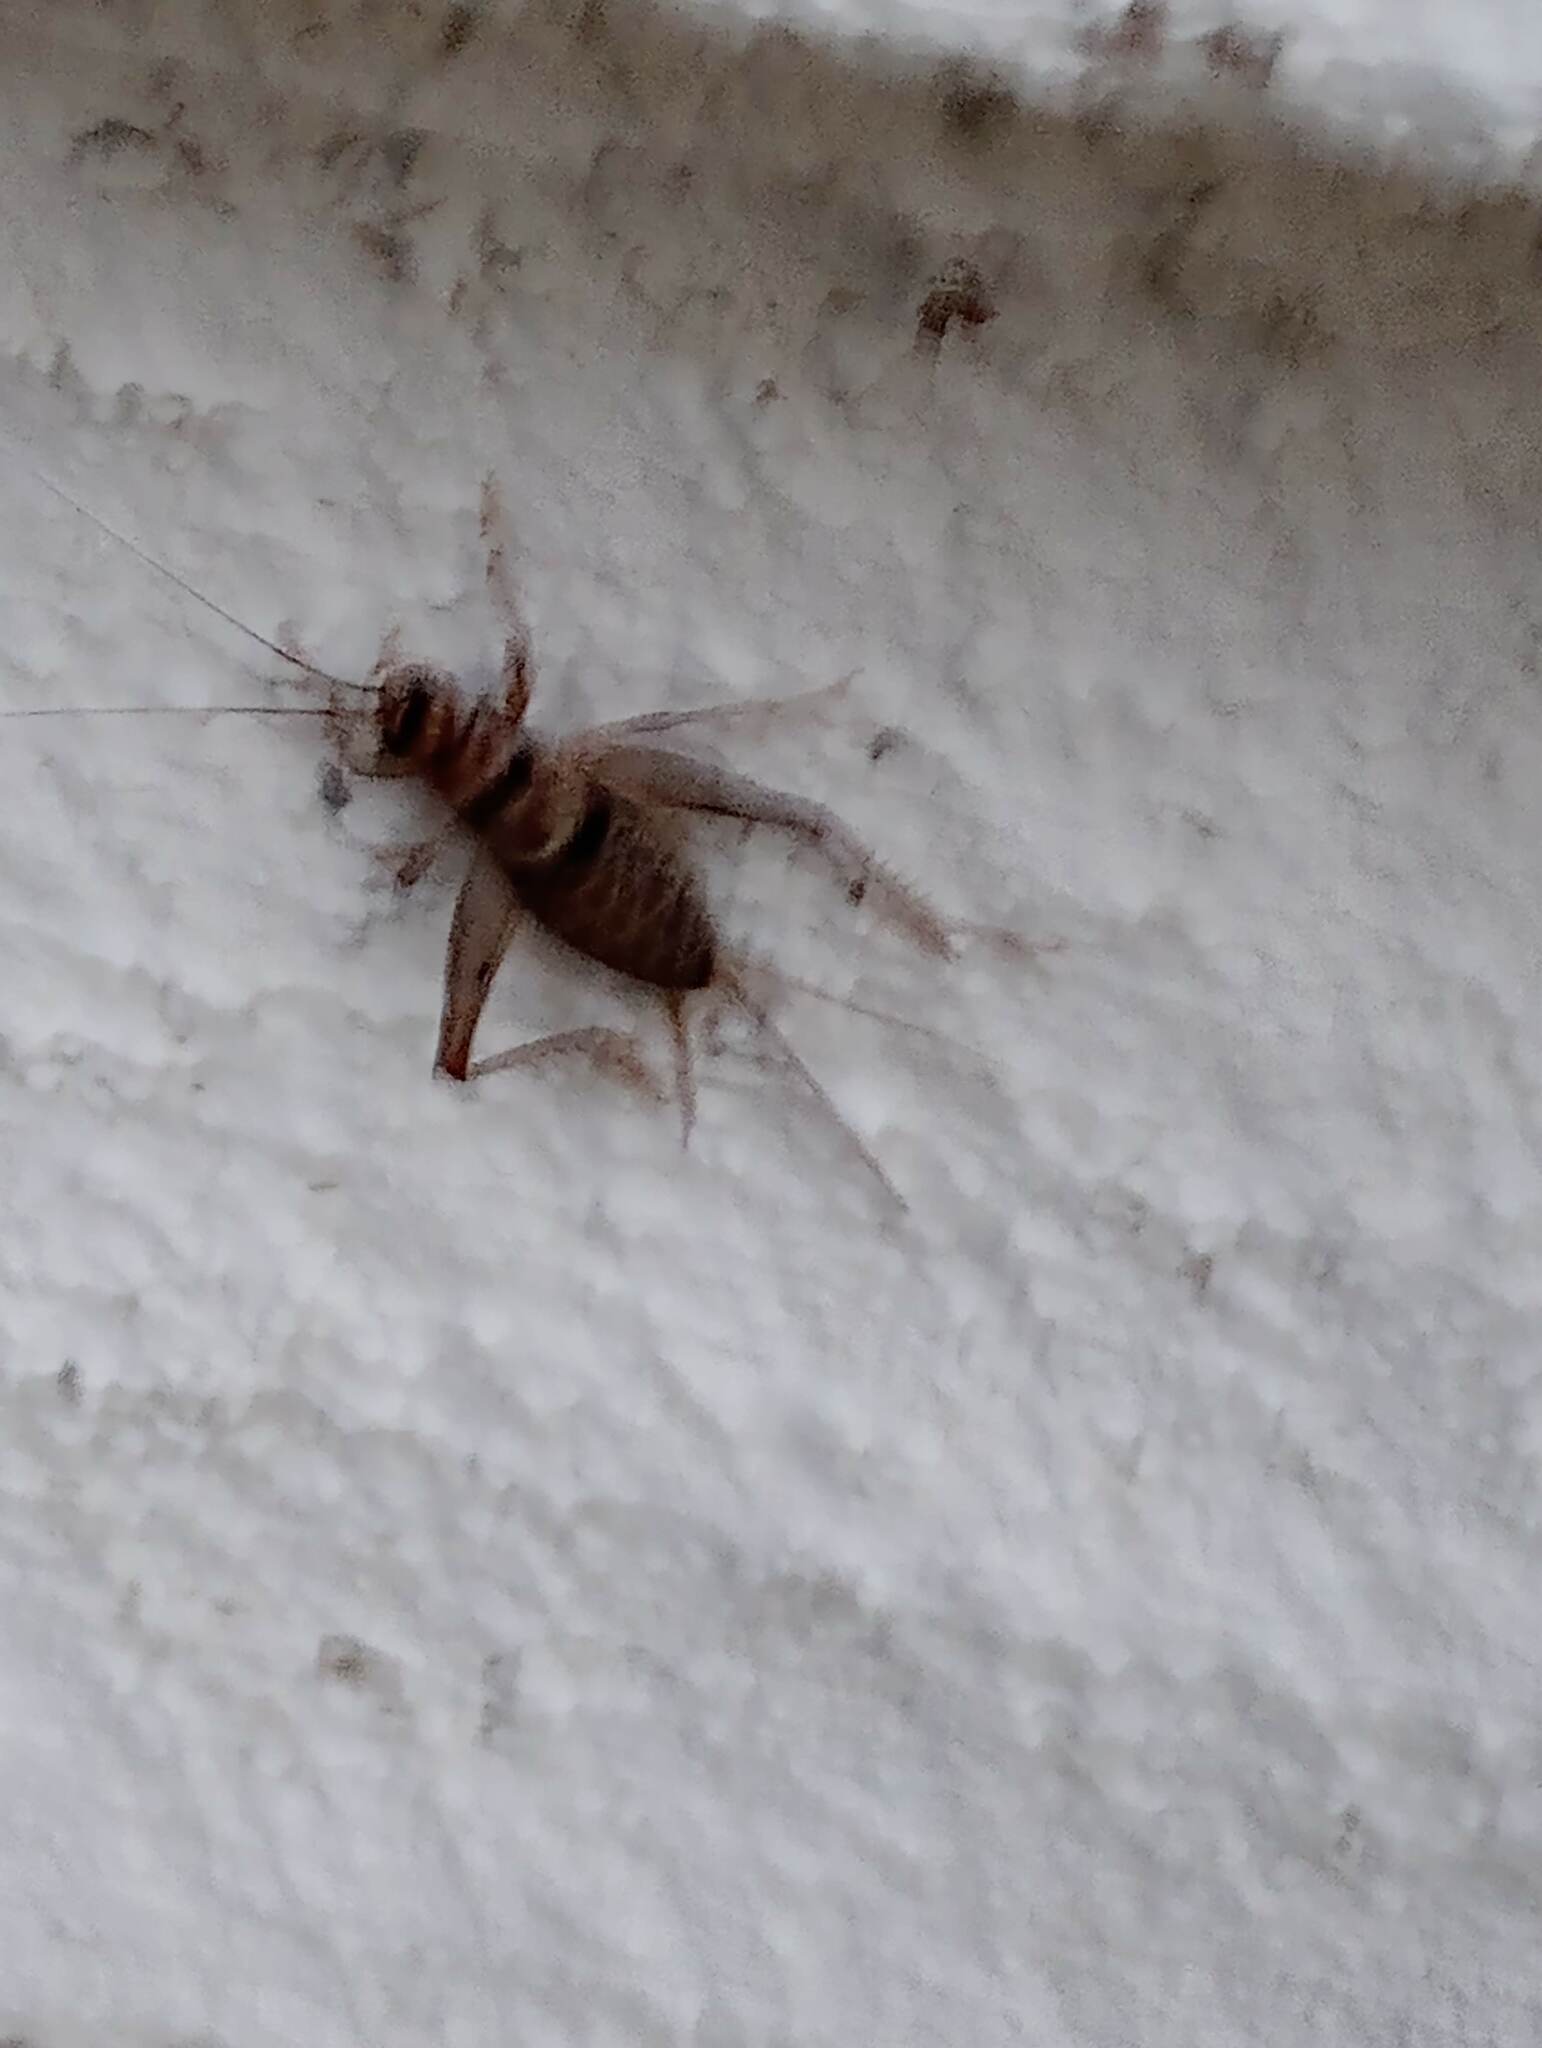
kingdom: Animalia
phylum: Arthropoda
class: Insecta
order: Orthoptera
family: Gryllidae
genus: Gryllodes
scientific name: Gryllodes sigillatus
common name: Tropical house cricket
